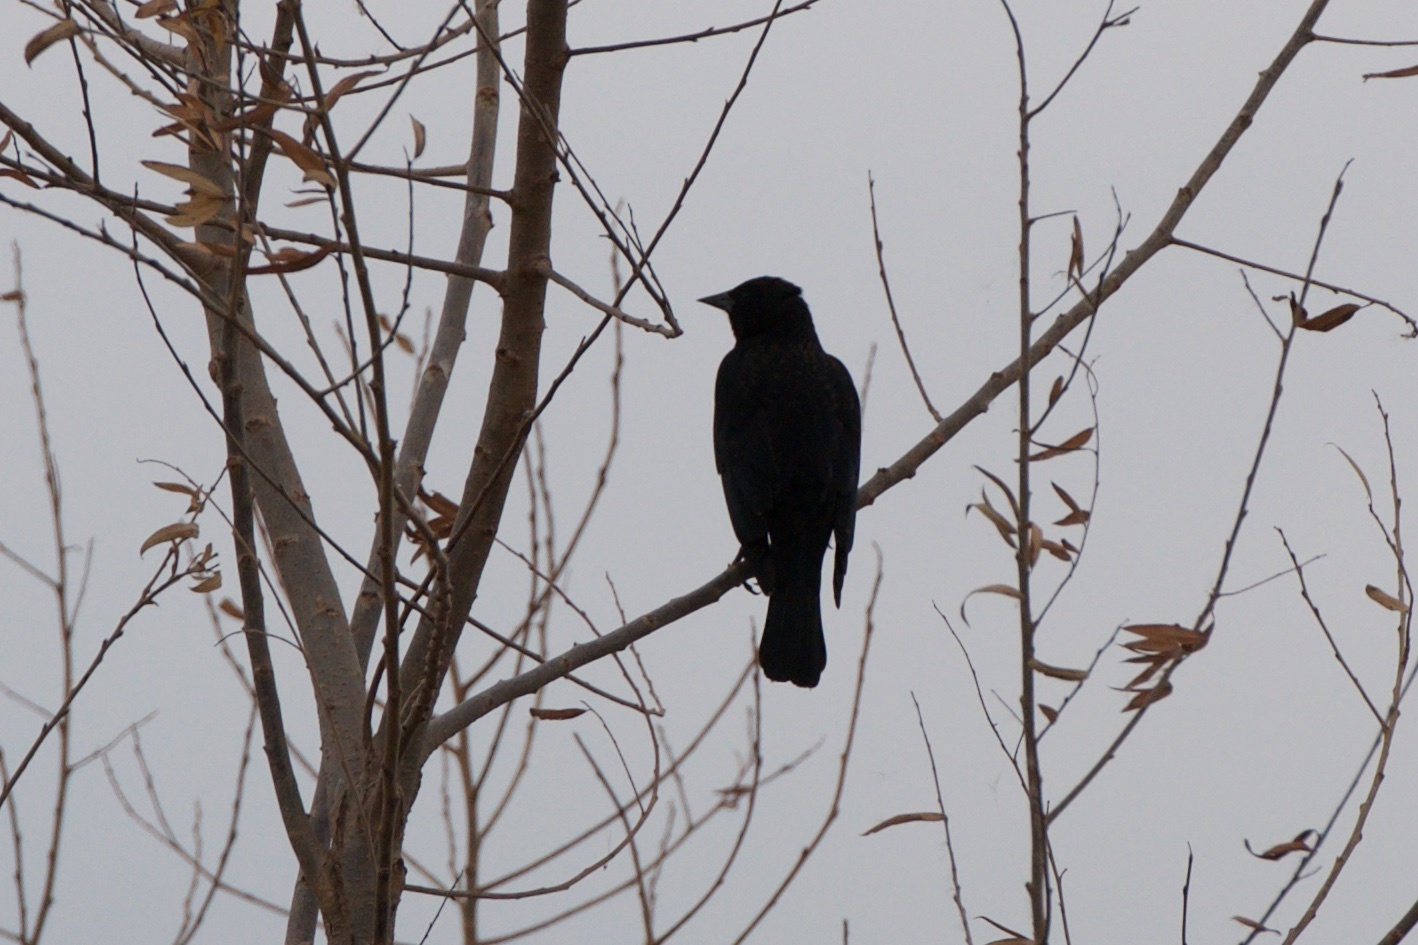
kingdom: Animalia
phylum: Chordata
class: Aves
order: Passeriformes
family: Icteridae
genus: Agelaius
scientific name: Agelaius phoeniceus
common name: Red-winged blackbird
